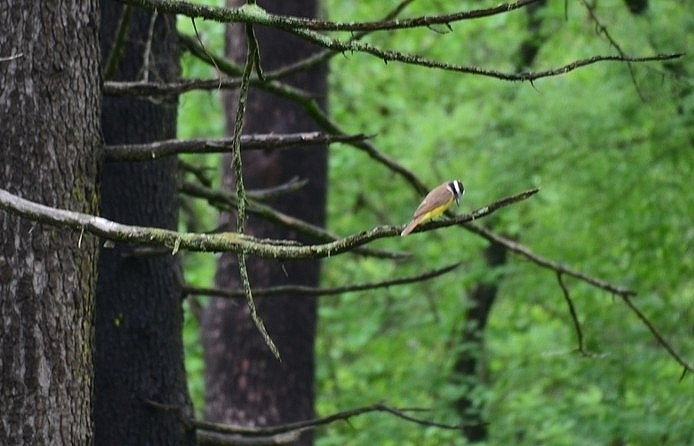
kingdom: Animalia
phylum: Chordata
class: Aves
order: Passeriformes
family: Tyrannidae
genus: Pitangus
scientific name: Pitangus sulphuratus
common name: Great kiskadee
